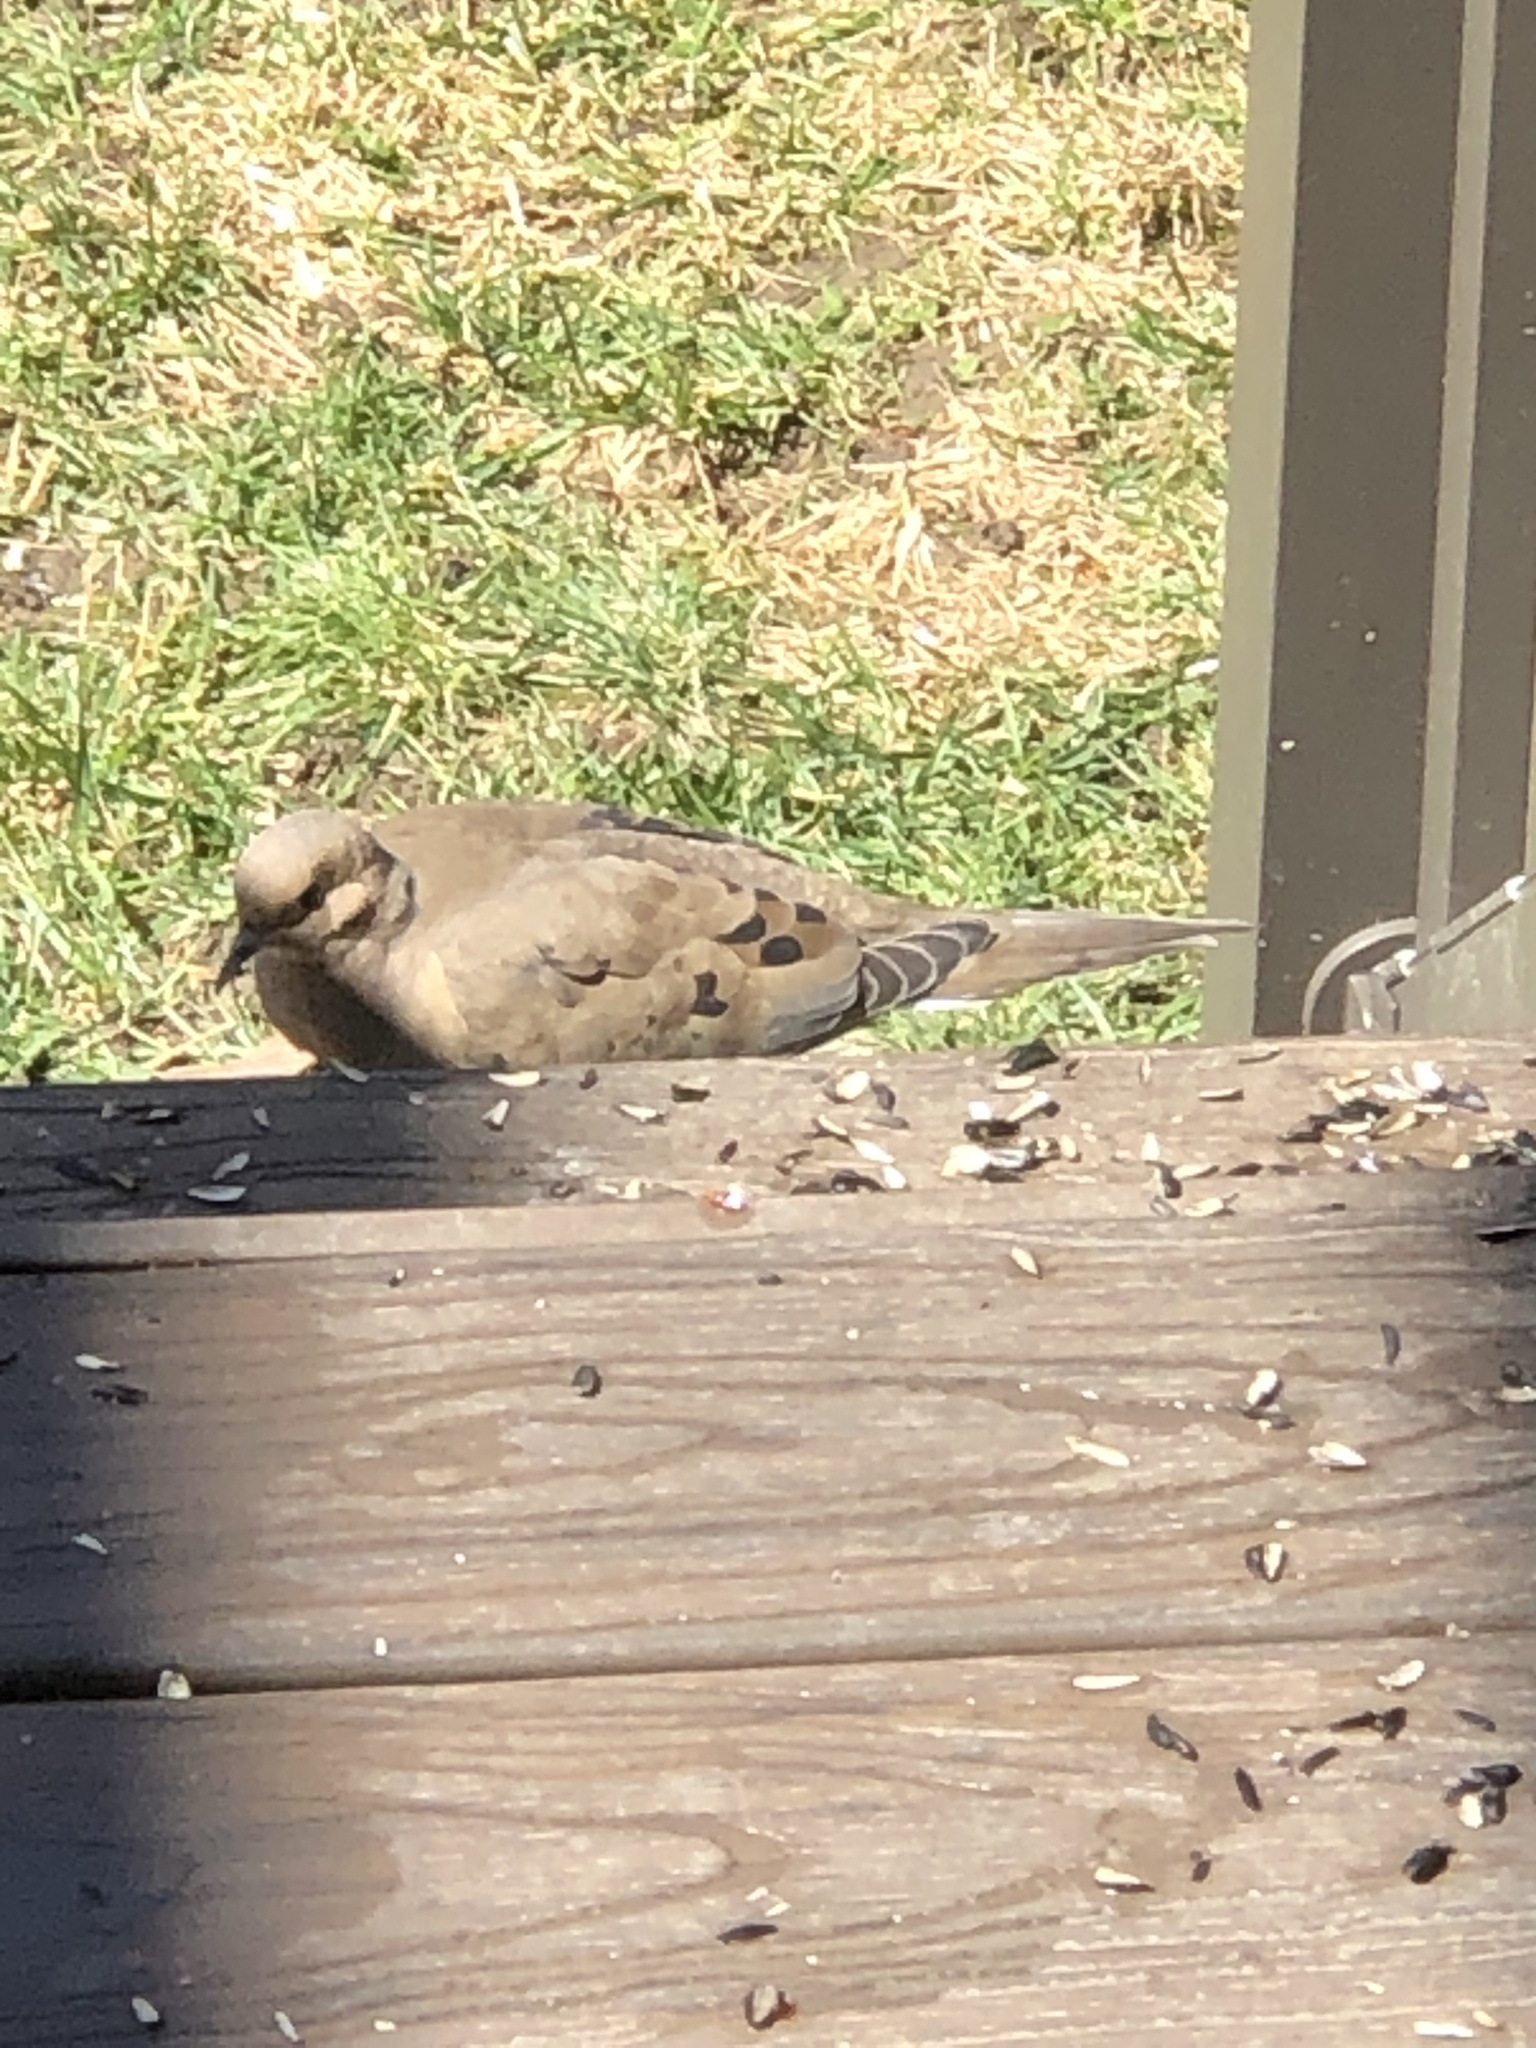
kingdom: Animalia
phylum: Chordata
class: Aves
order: Columbiformes
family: Columbidae
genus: Zenaida
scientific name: Zenaida macroura
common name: Mourning dove
